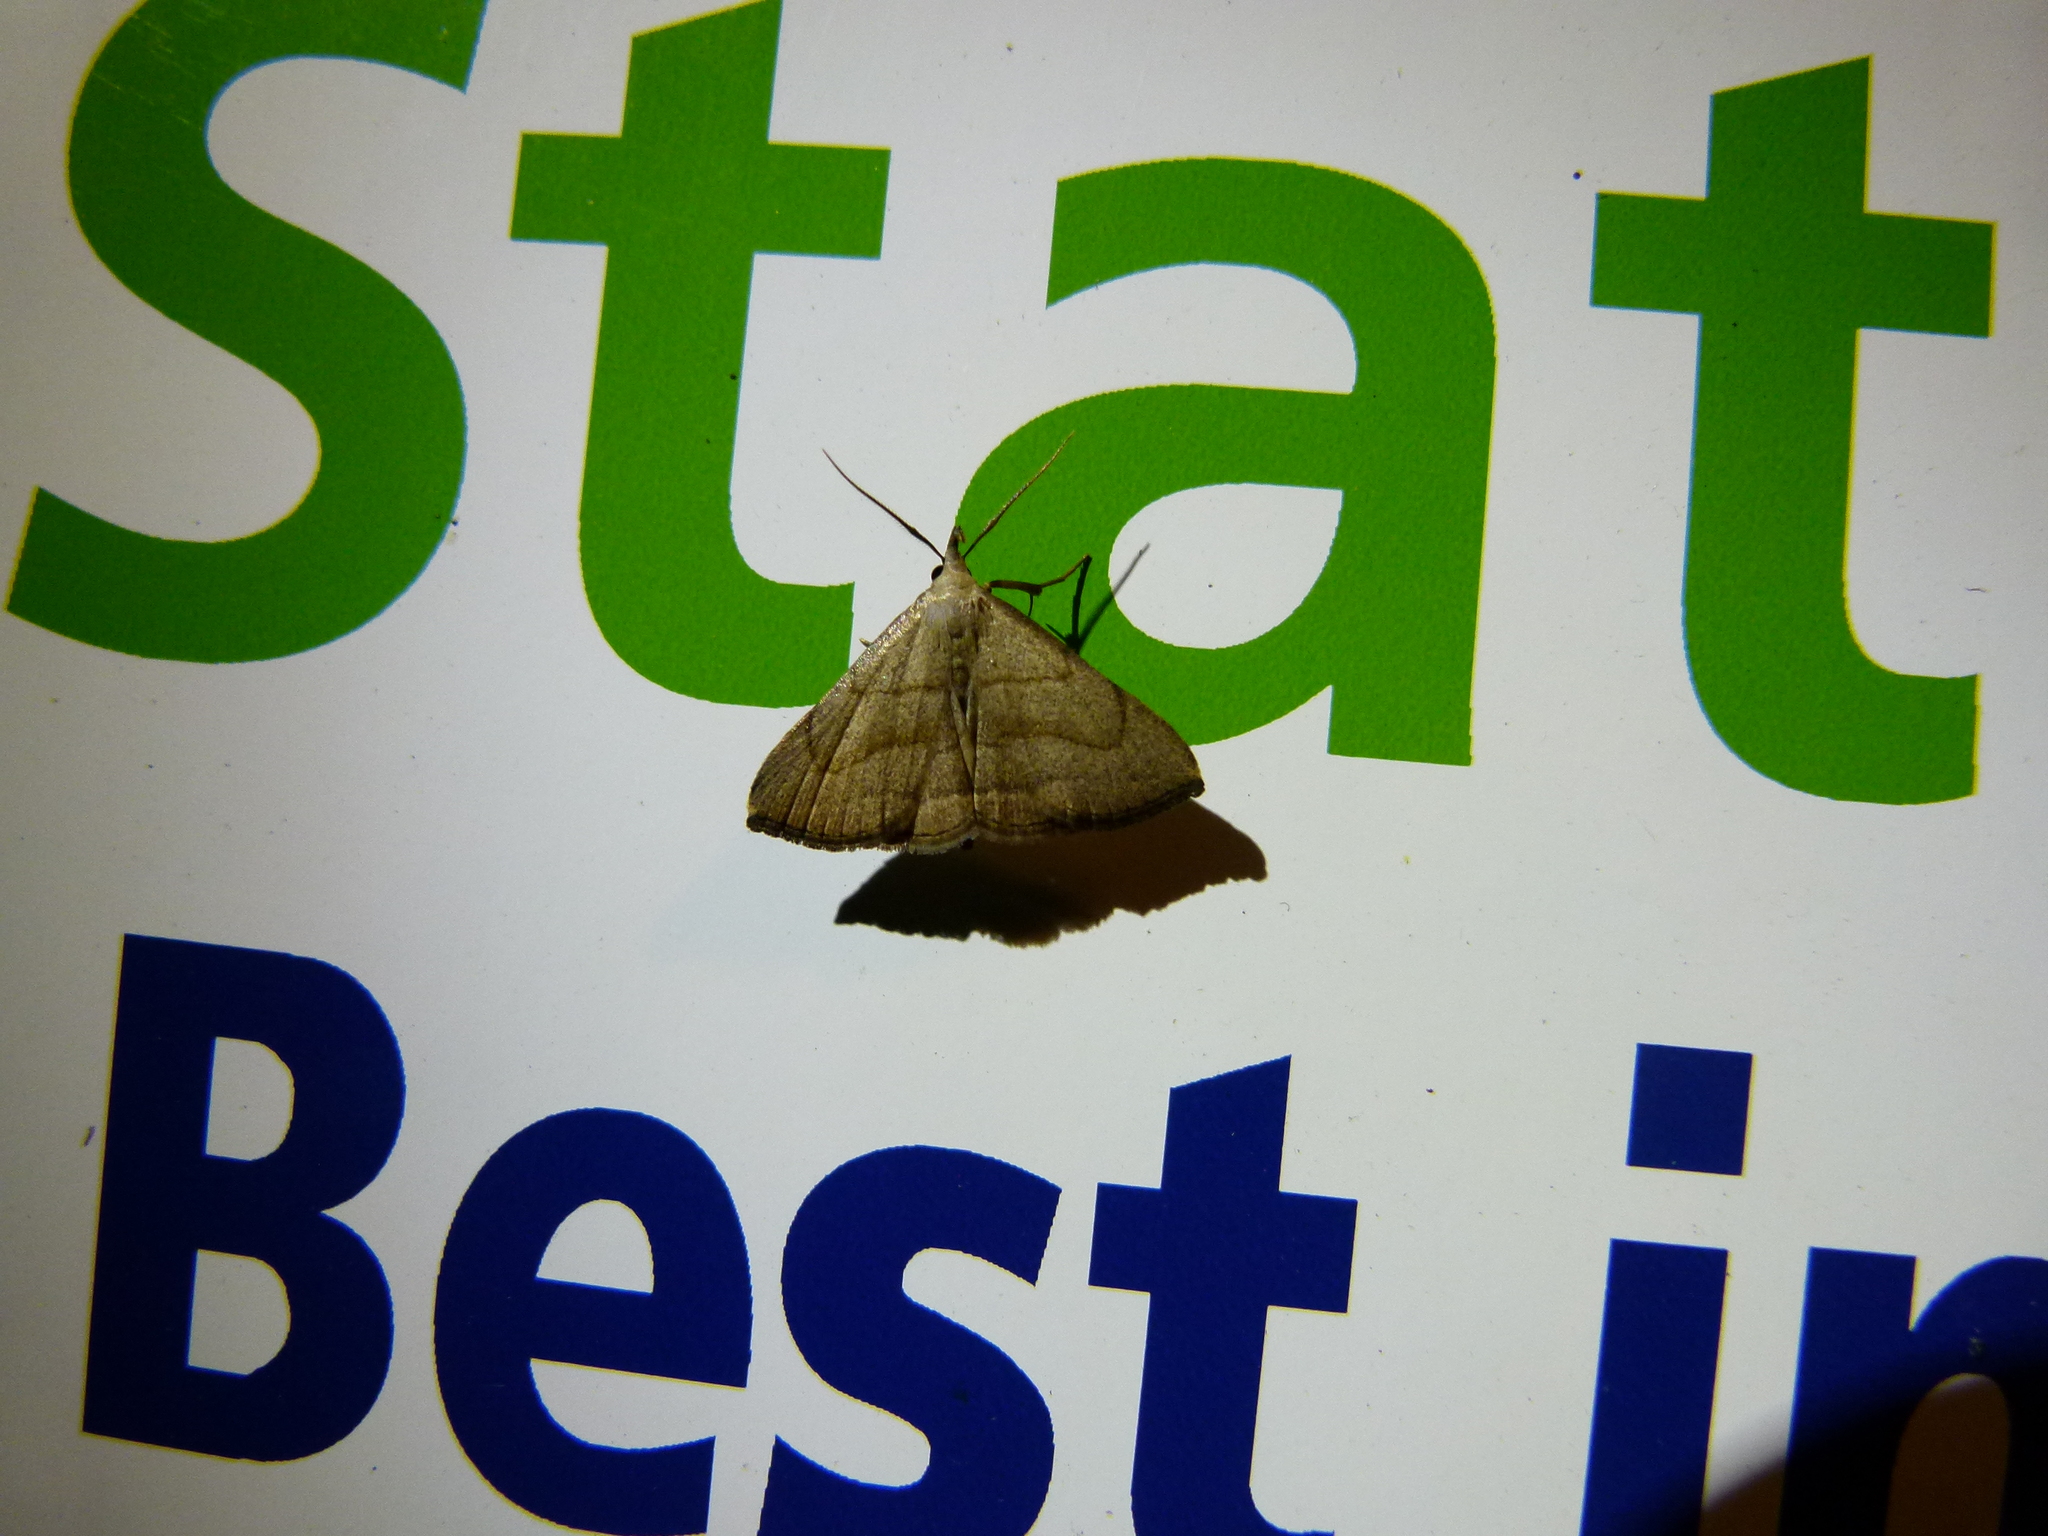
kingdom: Animalia
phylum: Arthropoda
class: Insecta
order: Lepidoptera
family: Erebidae
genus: Macrochilo
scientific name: Macrochilo litophora
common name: Brown-lined owlet
